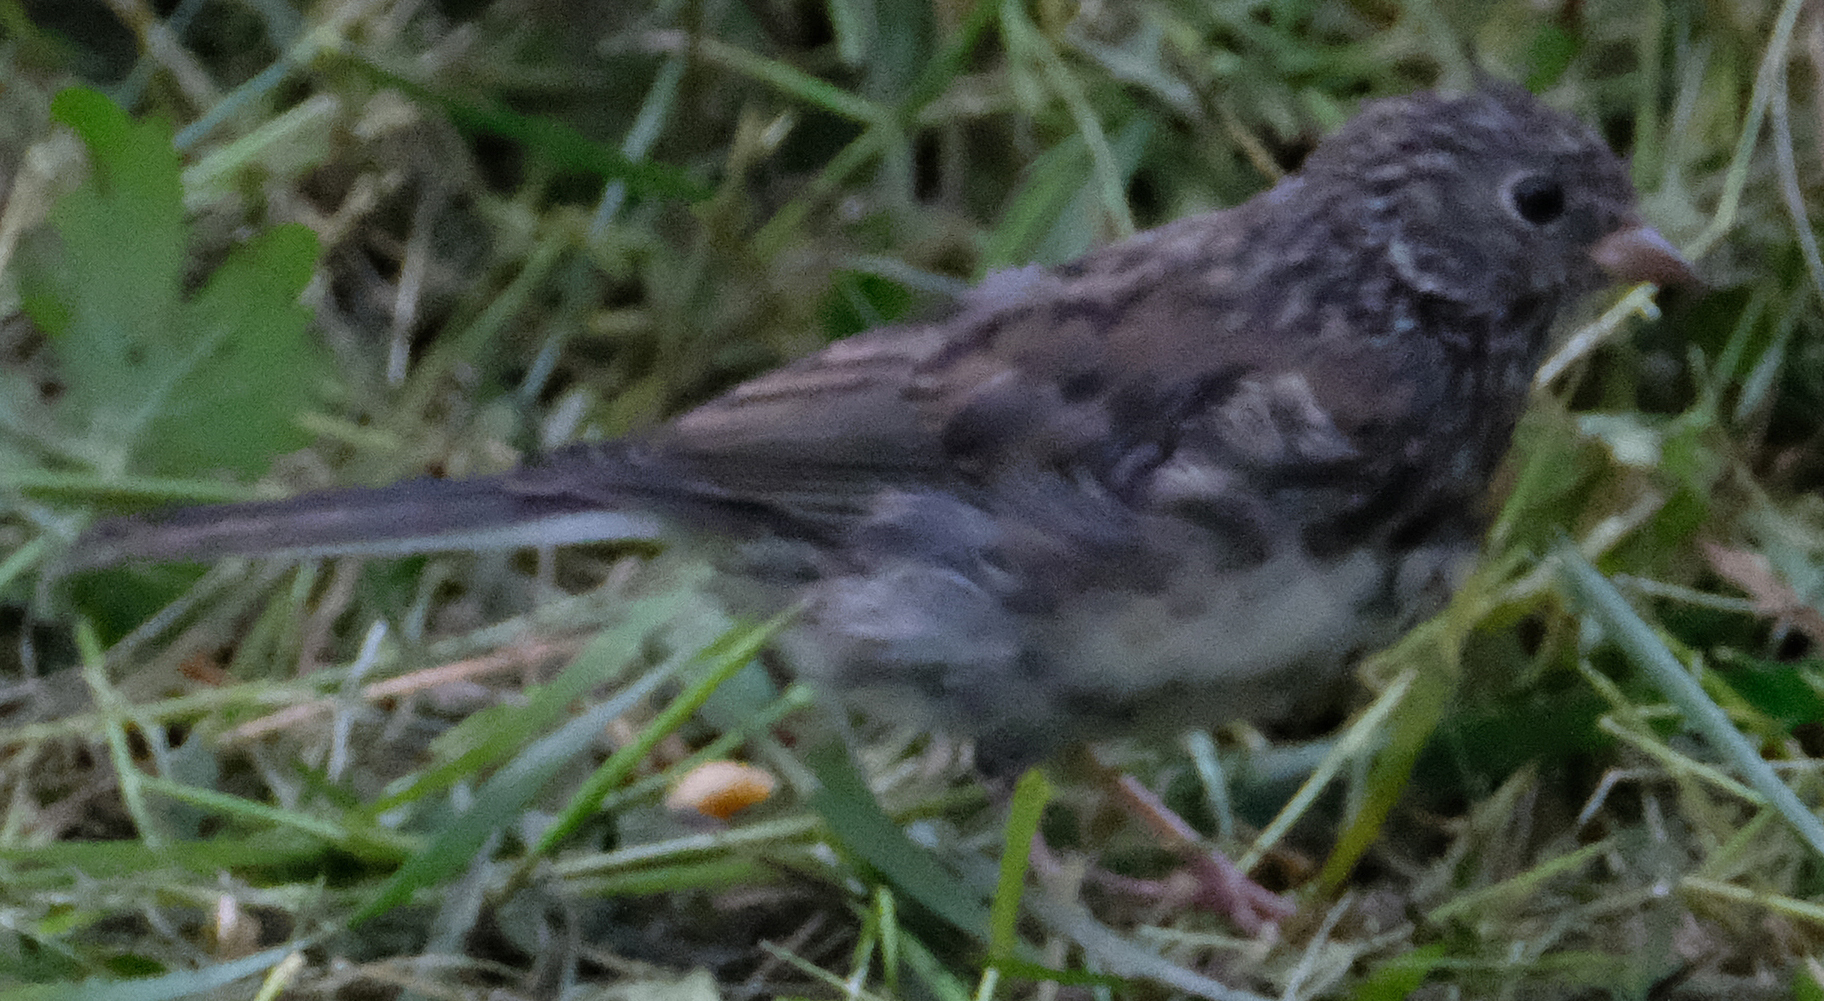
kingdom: Animalia
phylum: Chordata
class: Aves
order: Passeriformes
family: Passerellidae
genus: Junco
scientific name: Junco hyemalis
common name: Dark-eyed junco
